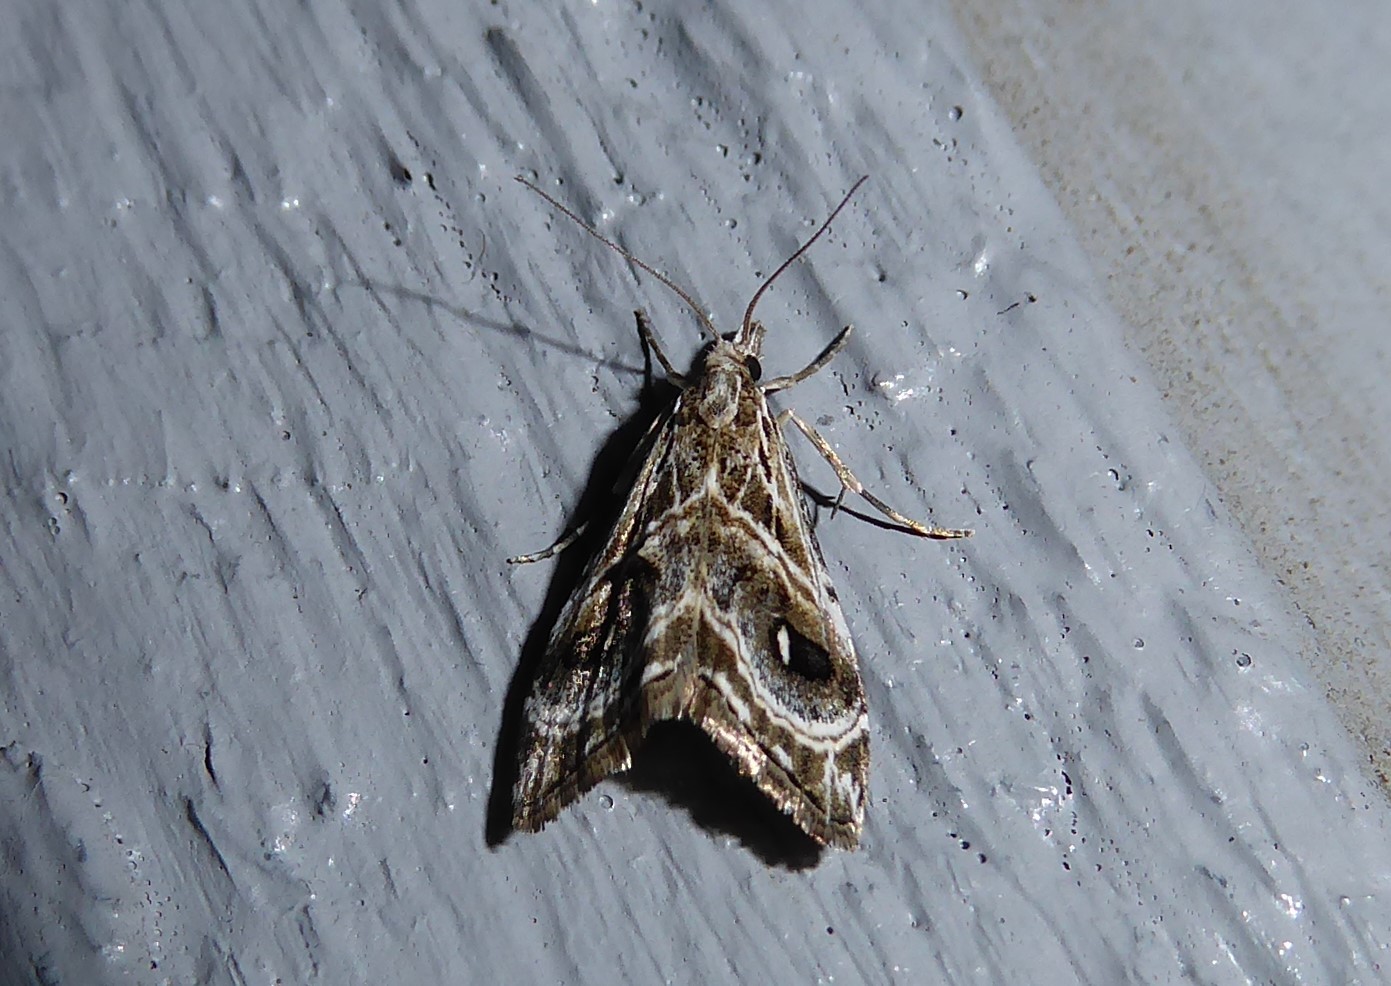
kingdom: Animalia
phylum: Arthropoda
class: Insecta
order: Lepidoptera
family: Crambidae
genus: Gadira
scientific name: Gadira acerella
